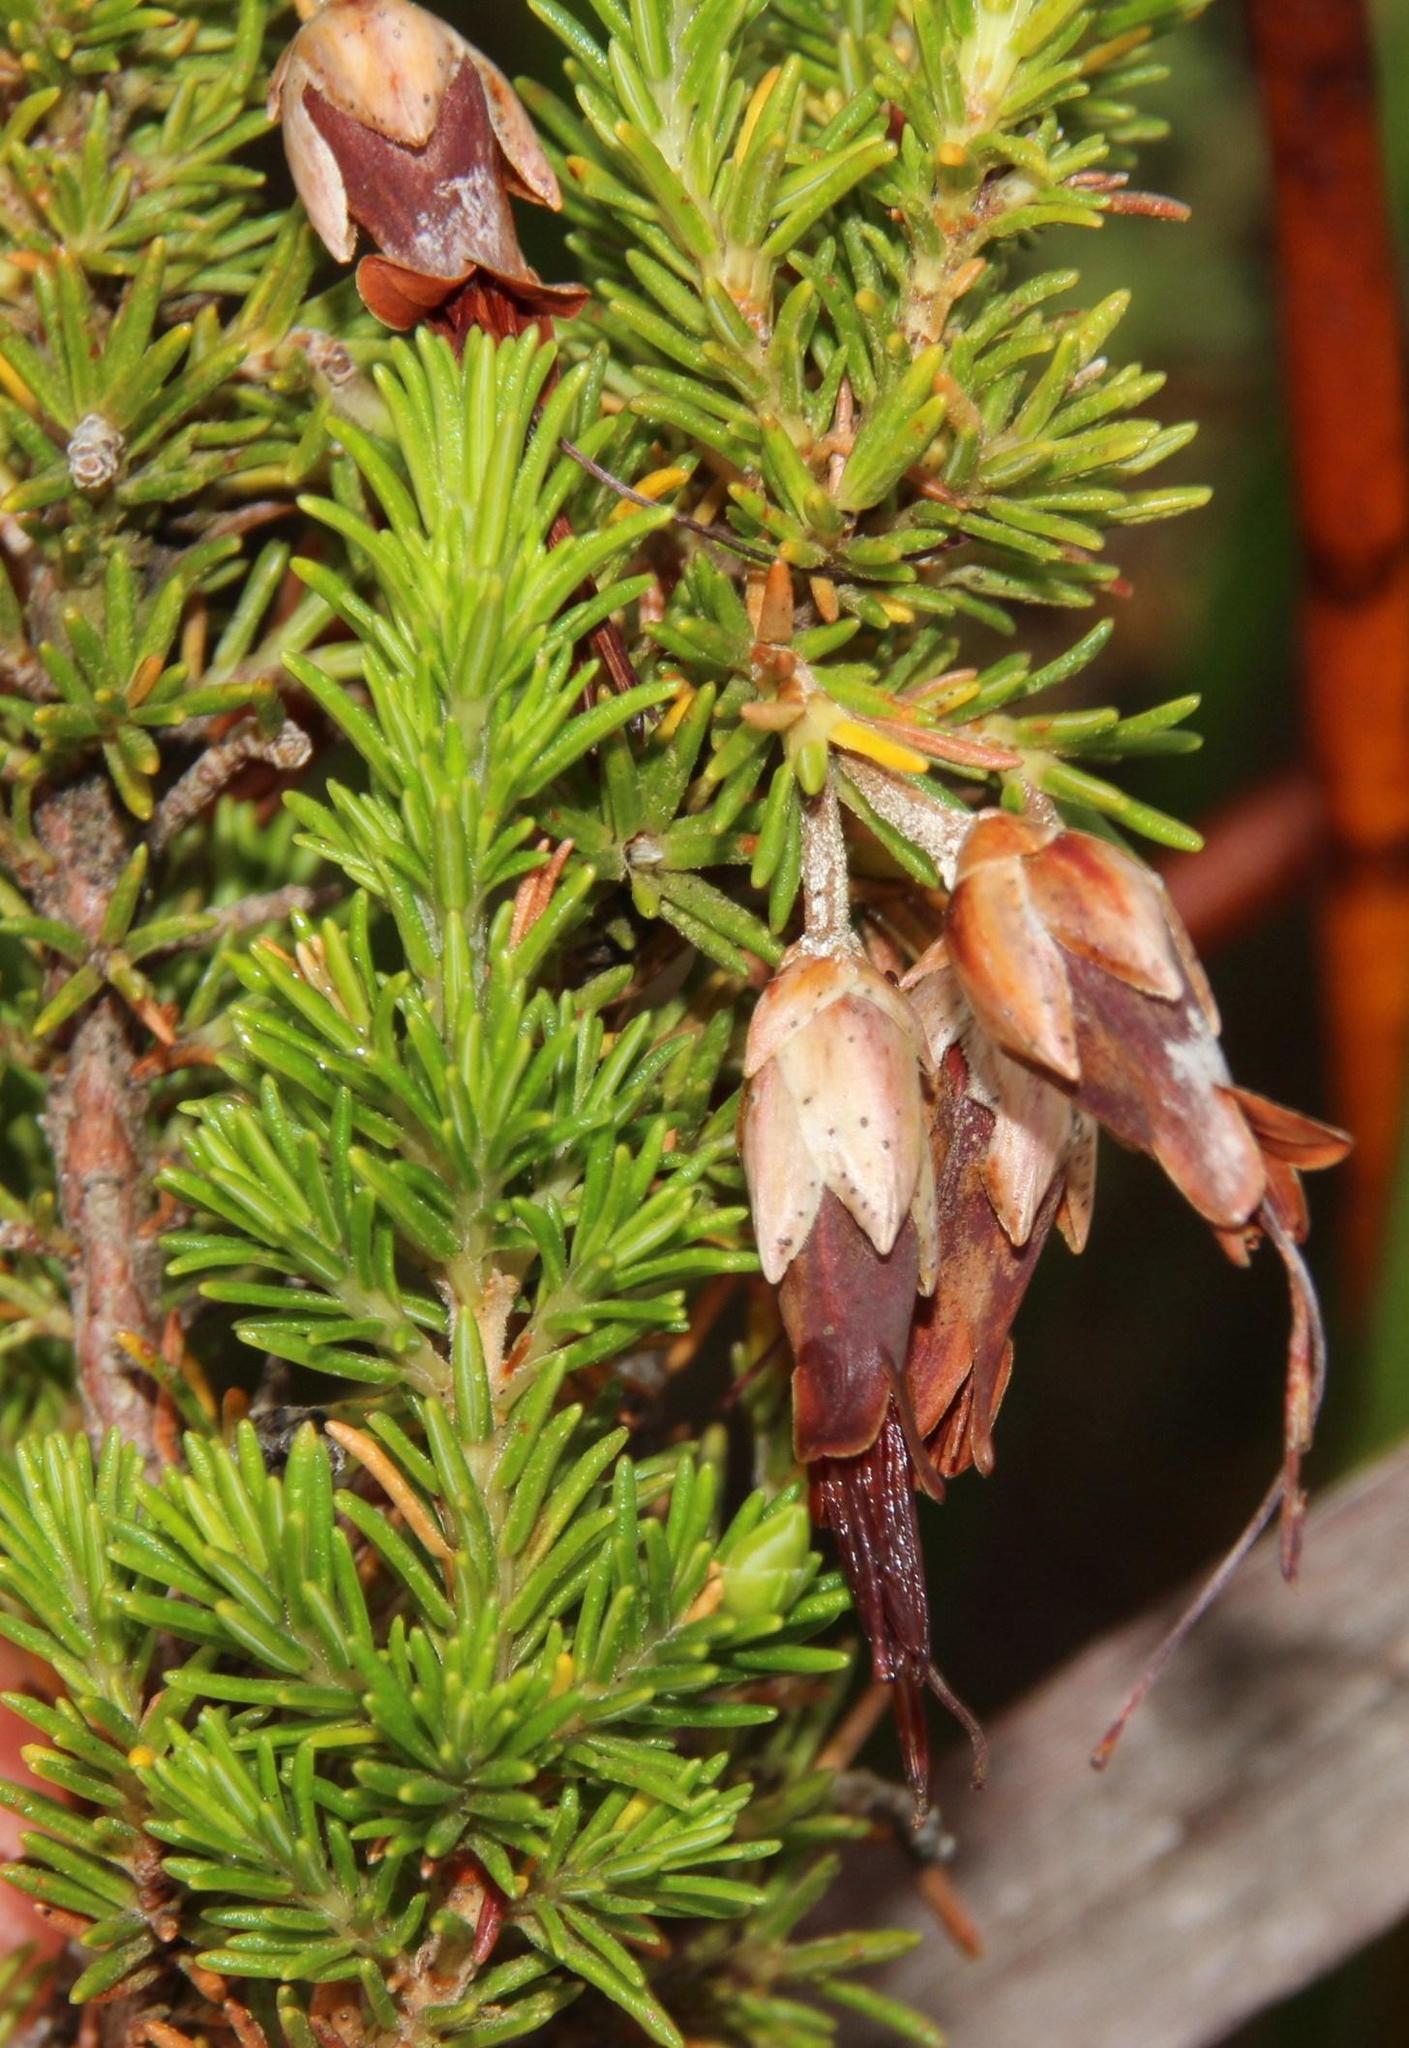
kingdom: Plantae
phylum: Tracheophyta
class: Magnoliopsida
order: Ericales
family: Ericaceae
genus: Erica
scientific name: Erica intermedia
